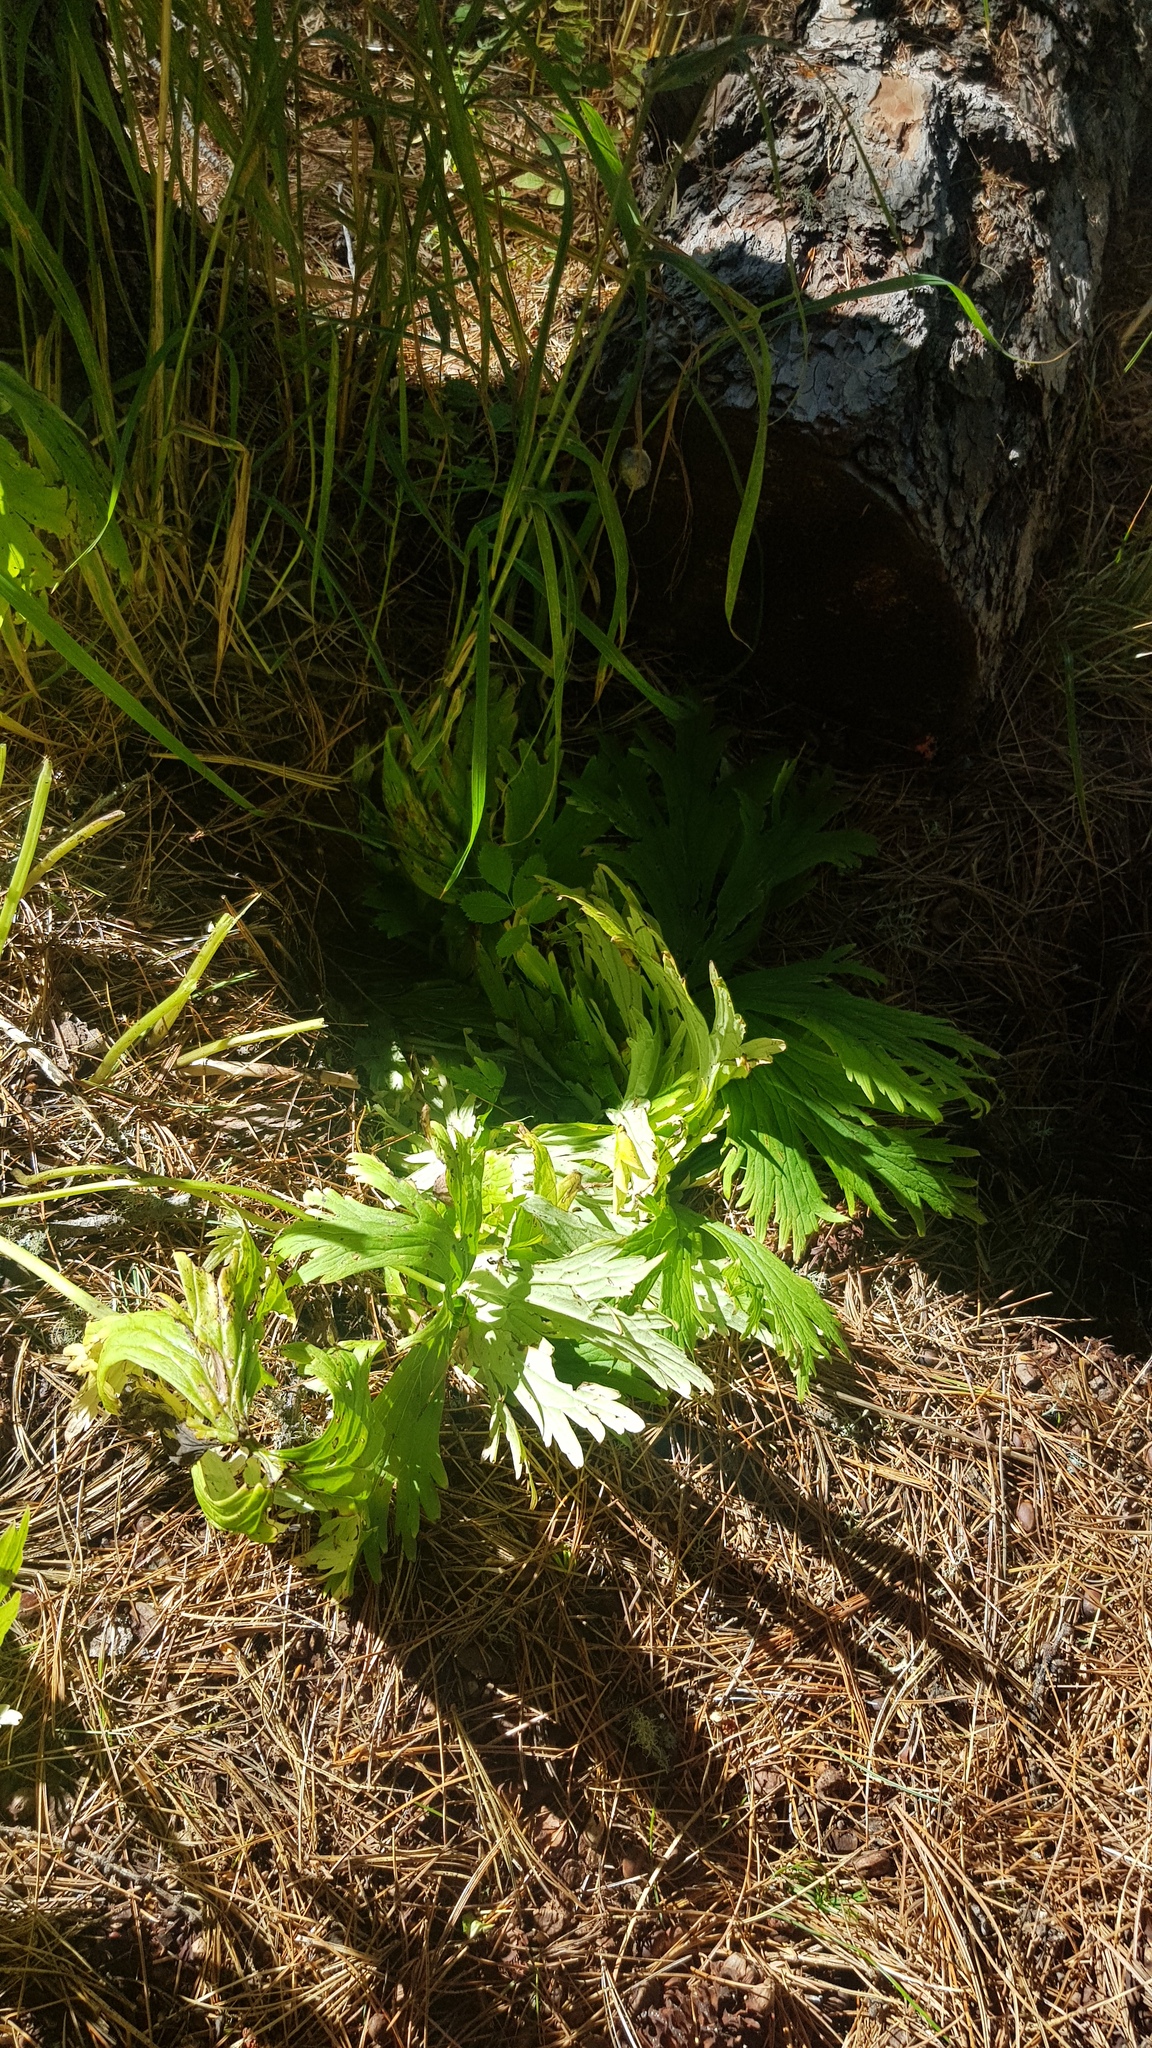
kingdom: Plantae
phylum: Tracheophyta
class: Magnoliopsida
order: Ranunculales
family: Ranunculaceae
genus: Aconitum
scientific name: Aconitum septentrionale
